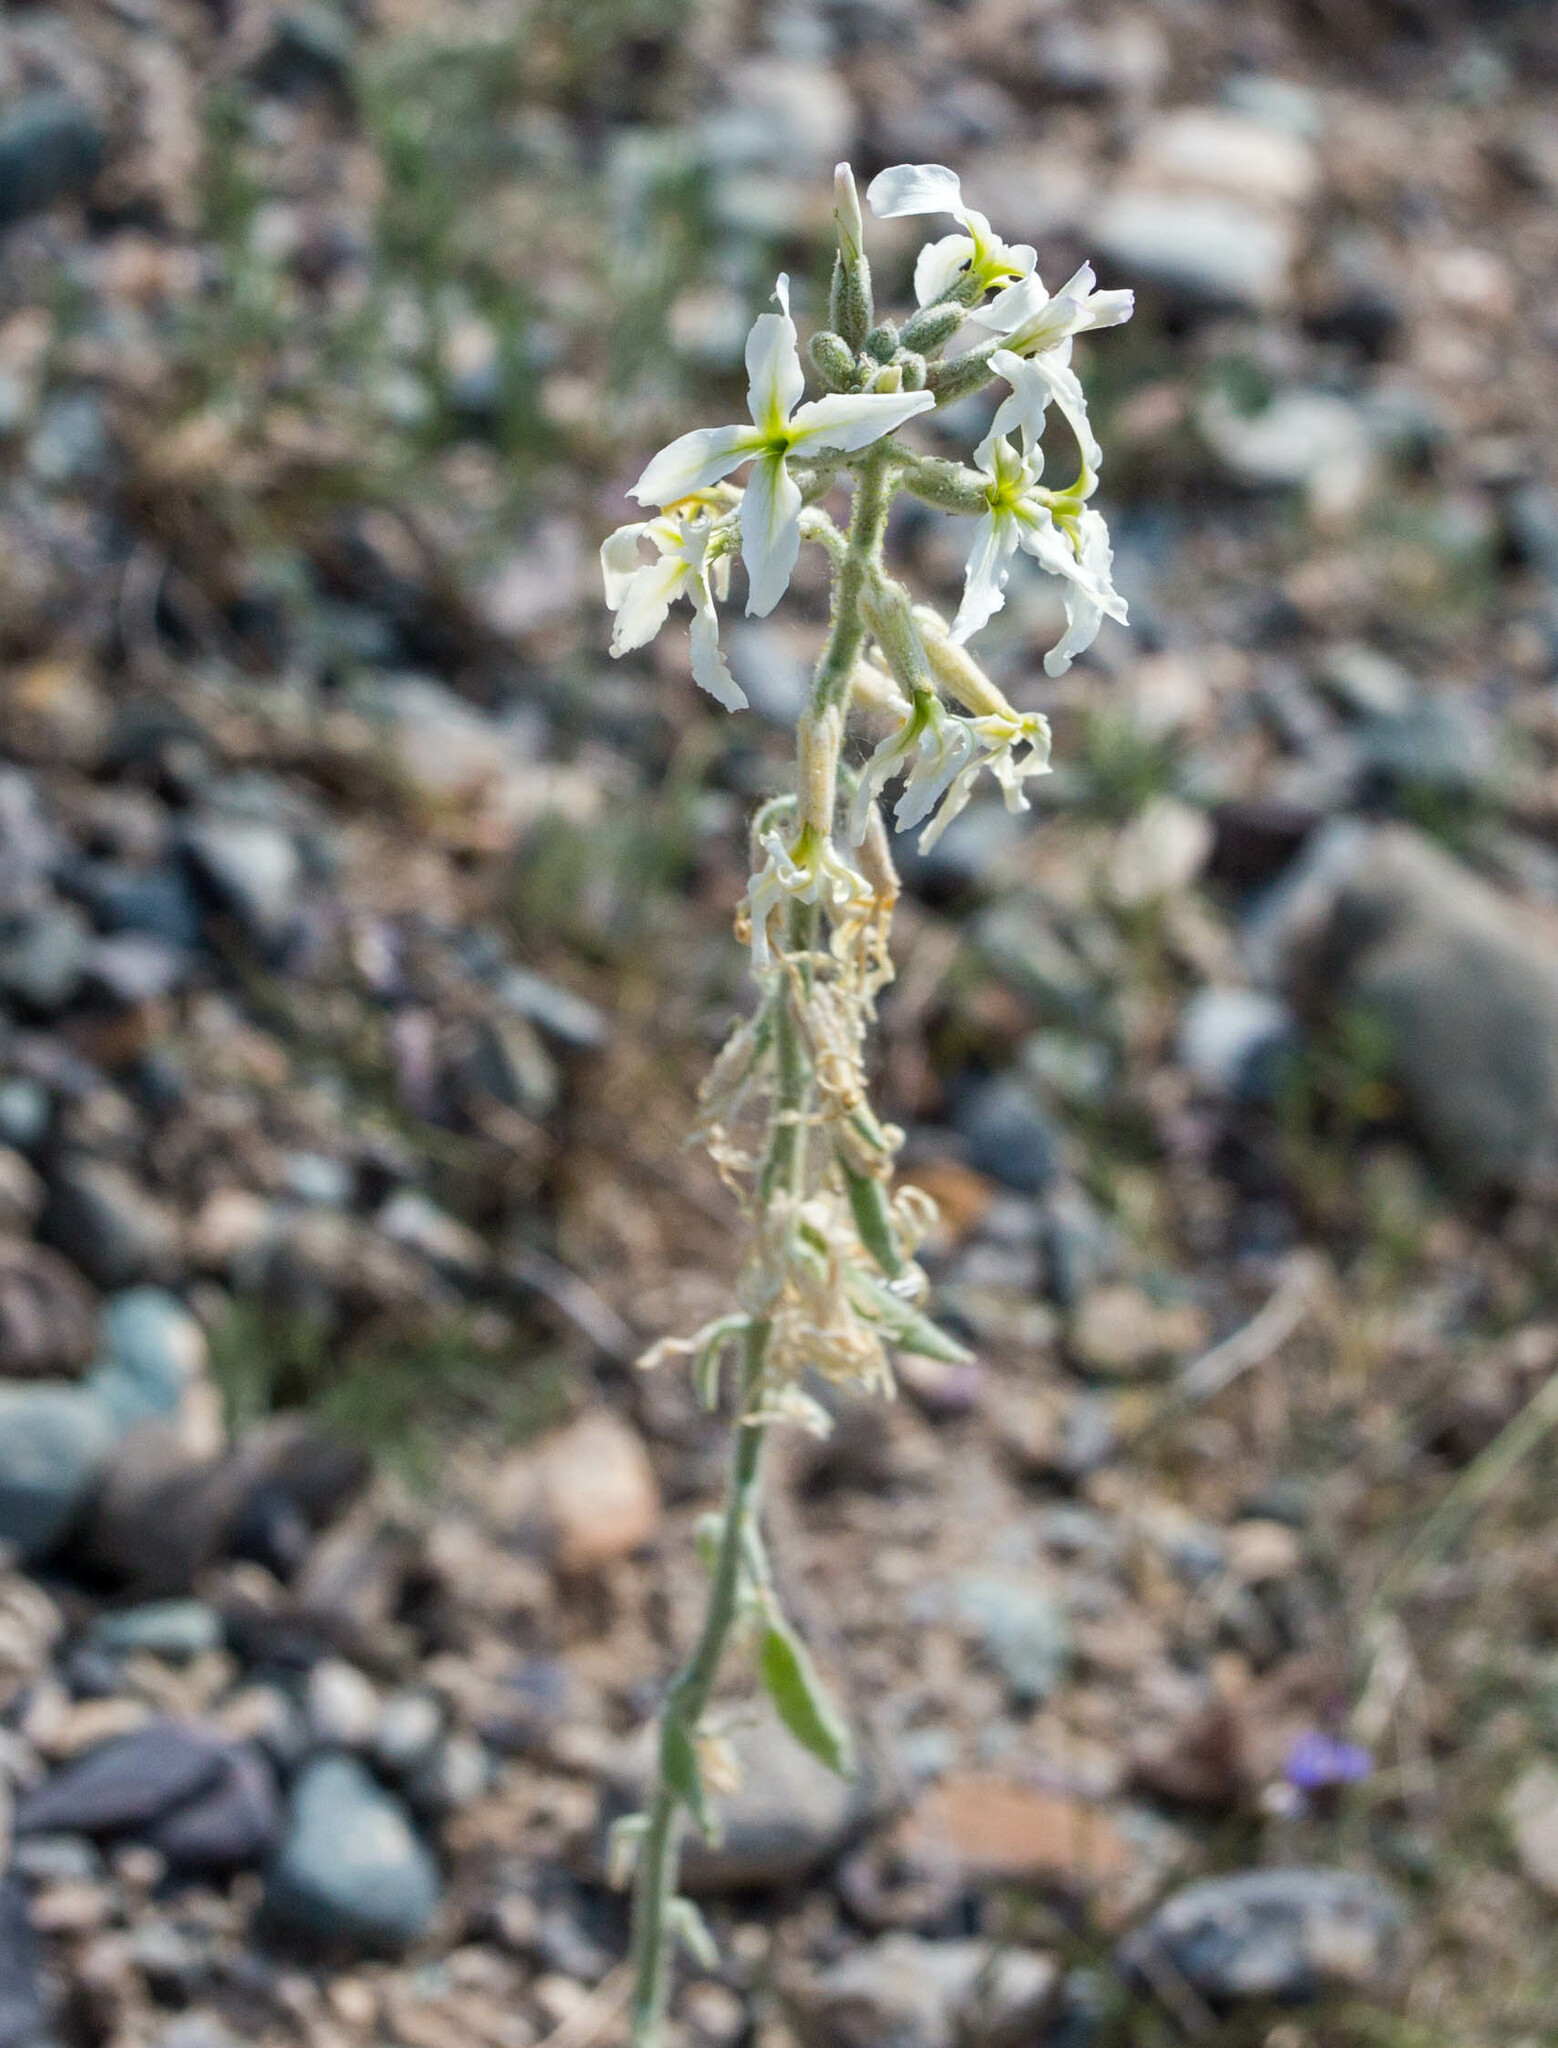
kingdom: Plantae
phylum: Tracheophyta
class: Magnoliopsida
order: Brassicales
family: Brassicaceae
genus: Microstigma
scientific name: Microstigma deflexum
